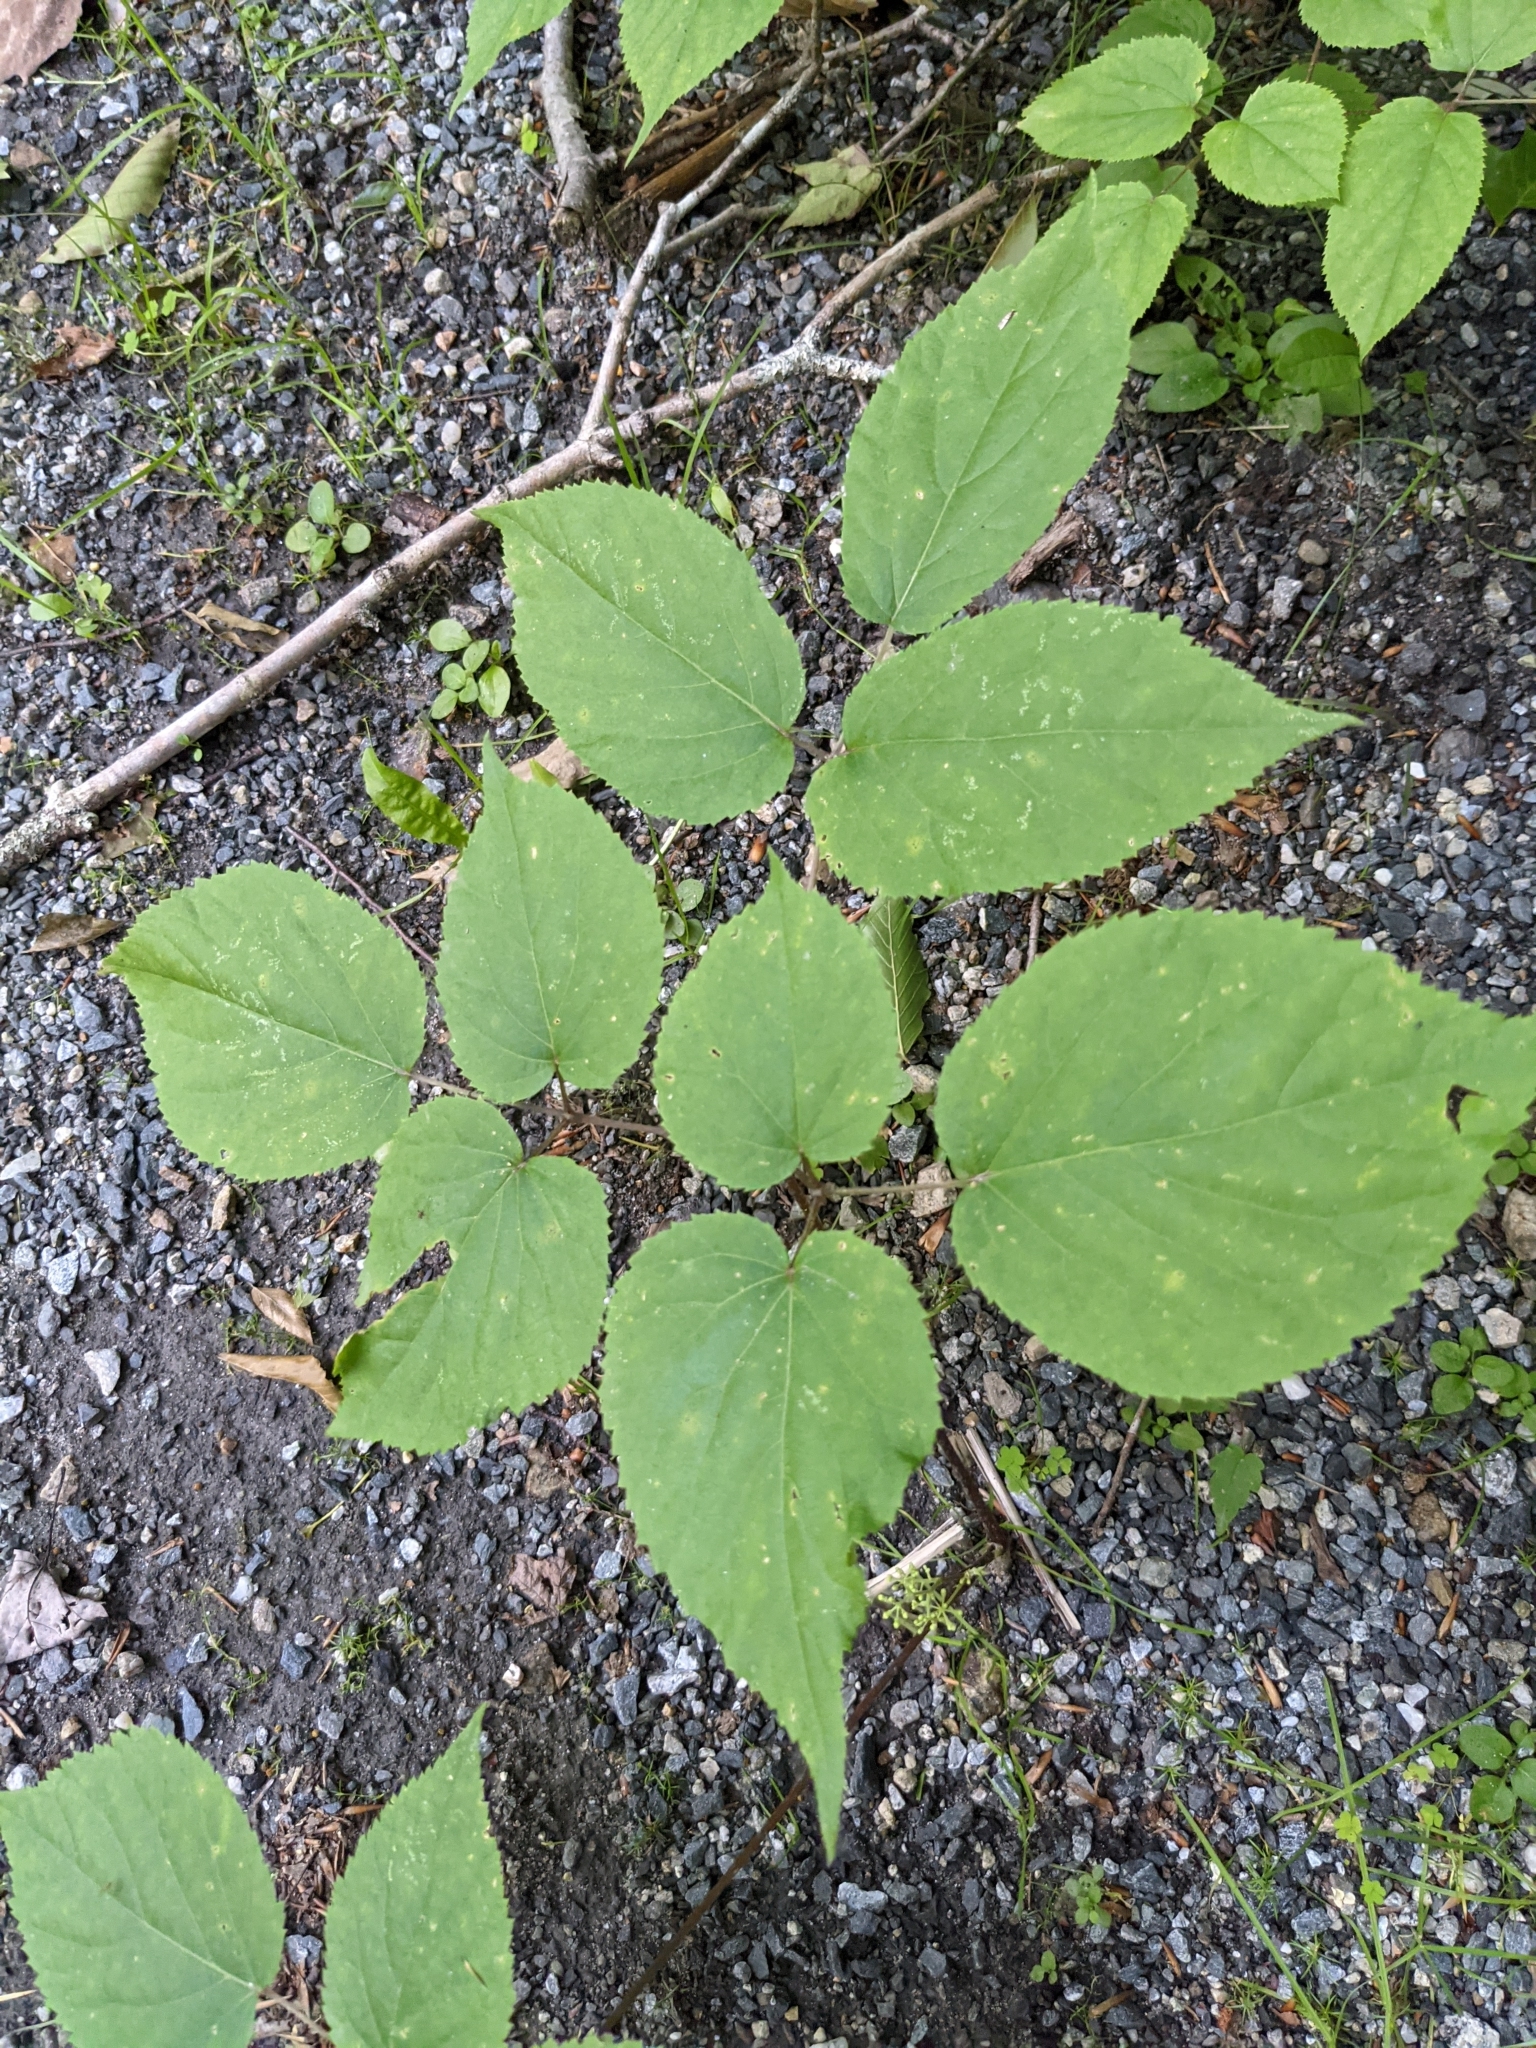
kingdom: Plantae
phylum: Tracheophyta
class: Magnoliopsida
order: Apiales
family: Araliaceae
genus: Aralia
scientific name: Aralia nudicaulis
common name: Wild sarsaparilla
